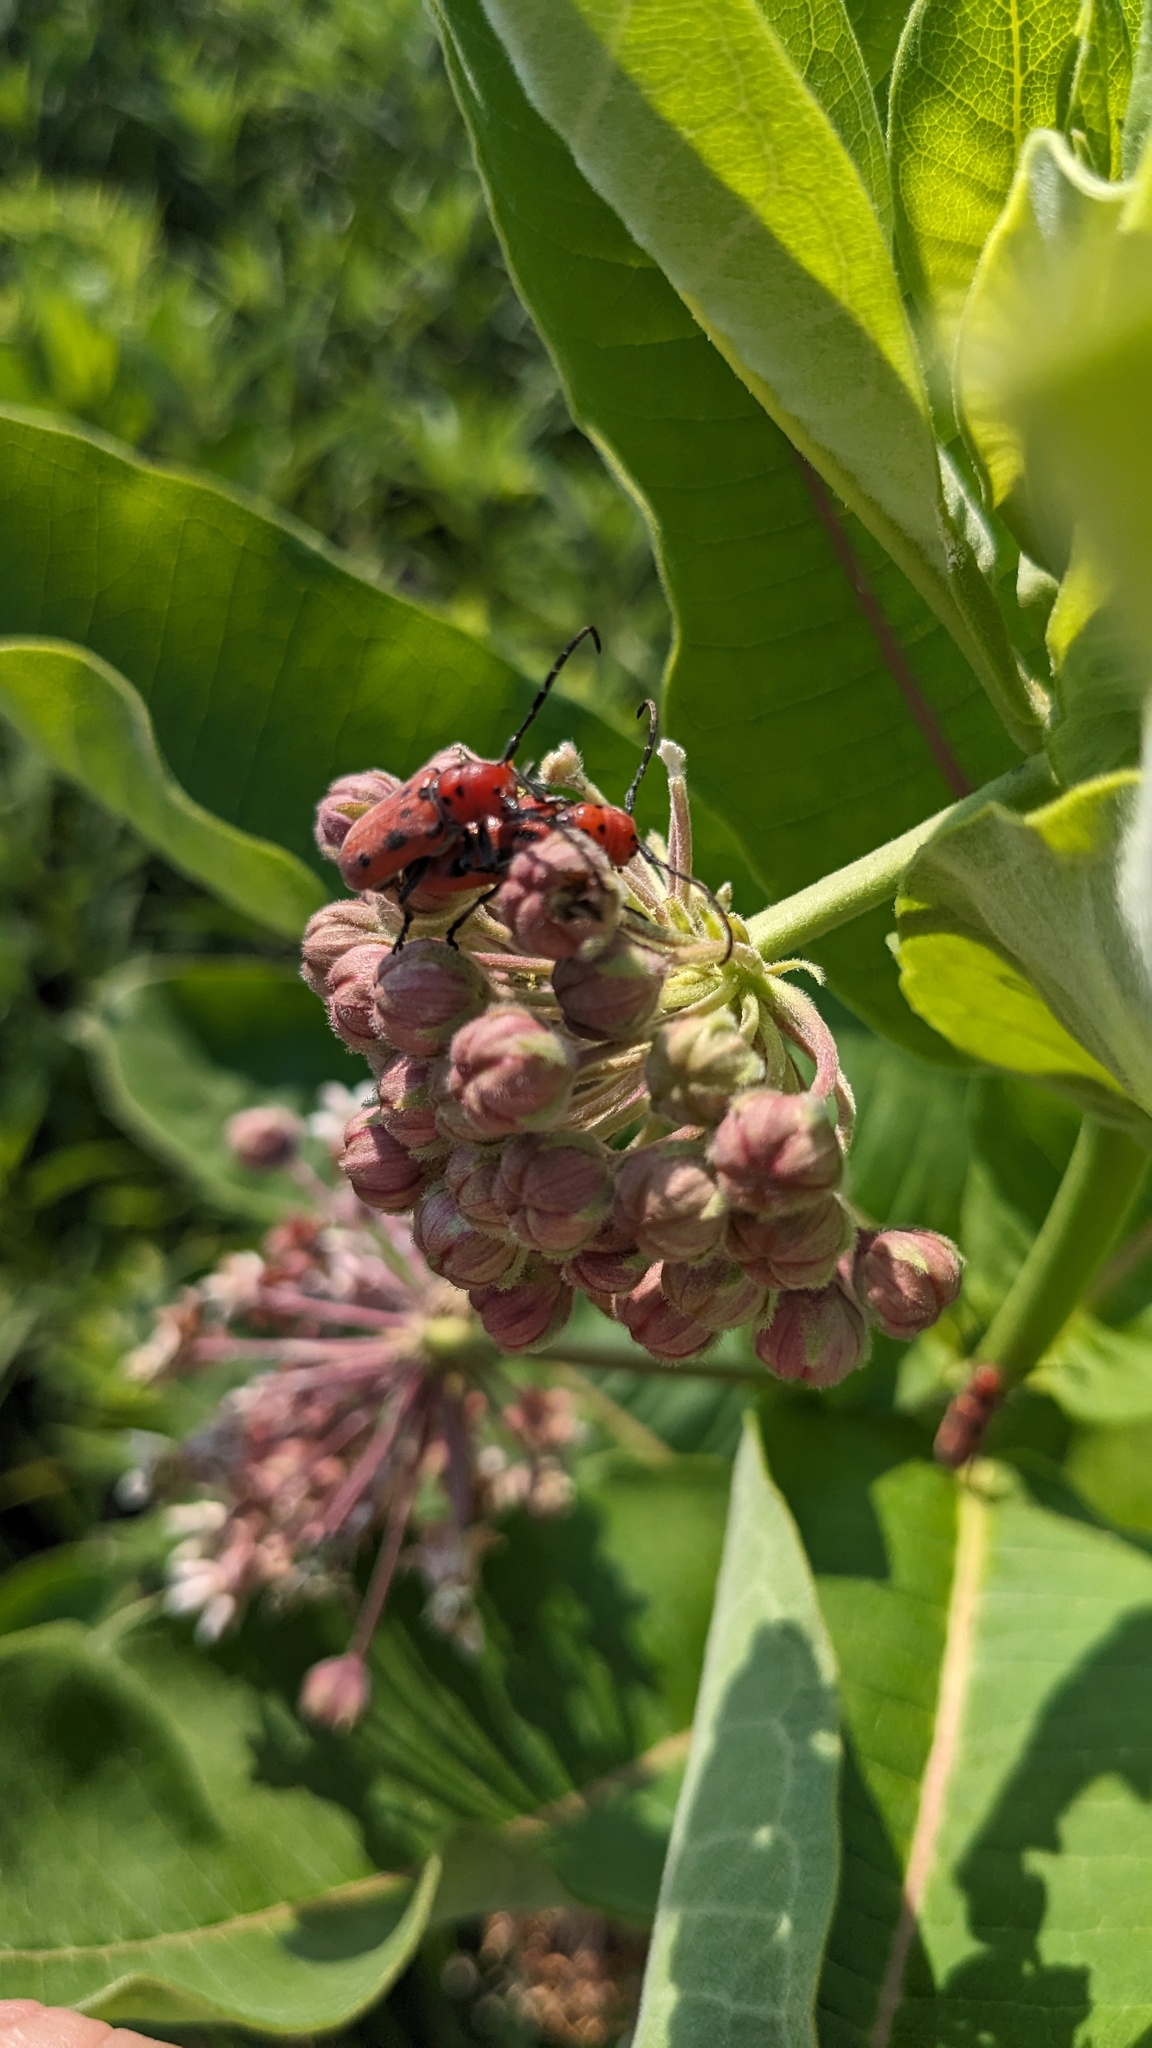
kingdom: Animalia
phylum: Arthropoda
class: Insecta
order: Coleoptera
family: Cerambycidae
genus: Tetraopes
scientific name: Tetraopes tetrophthalmus
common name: Red milkweed beetle
